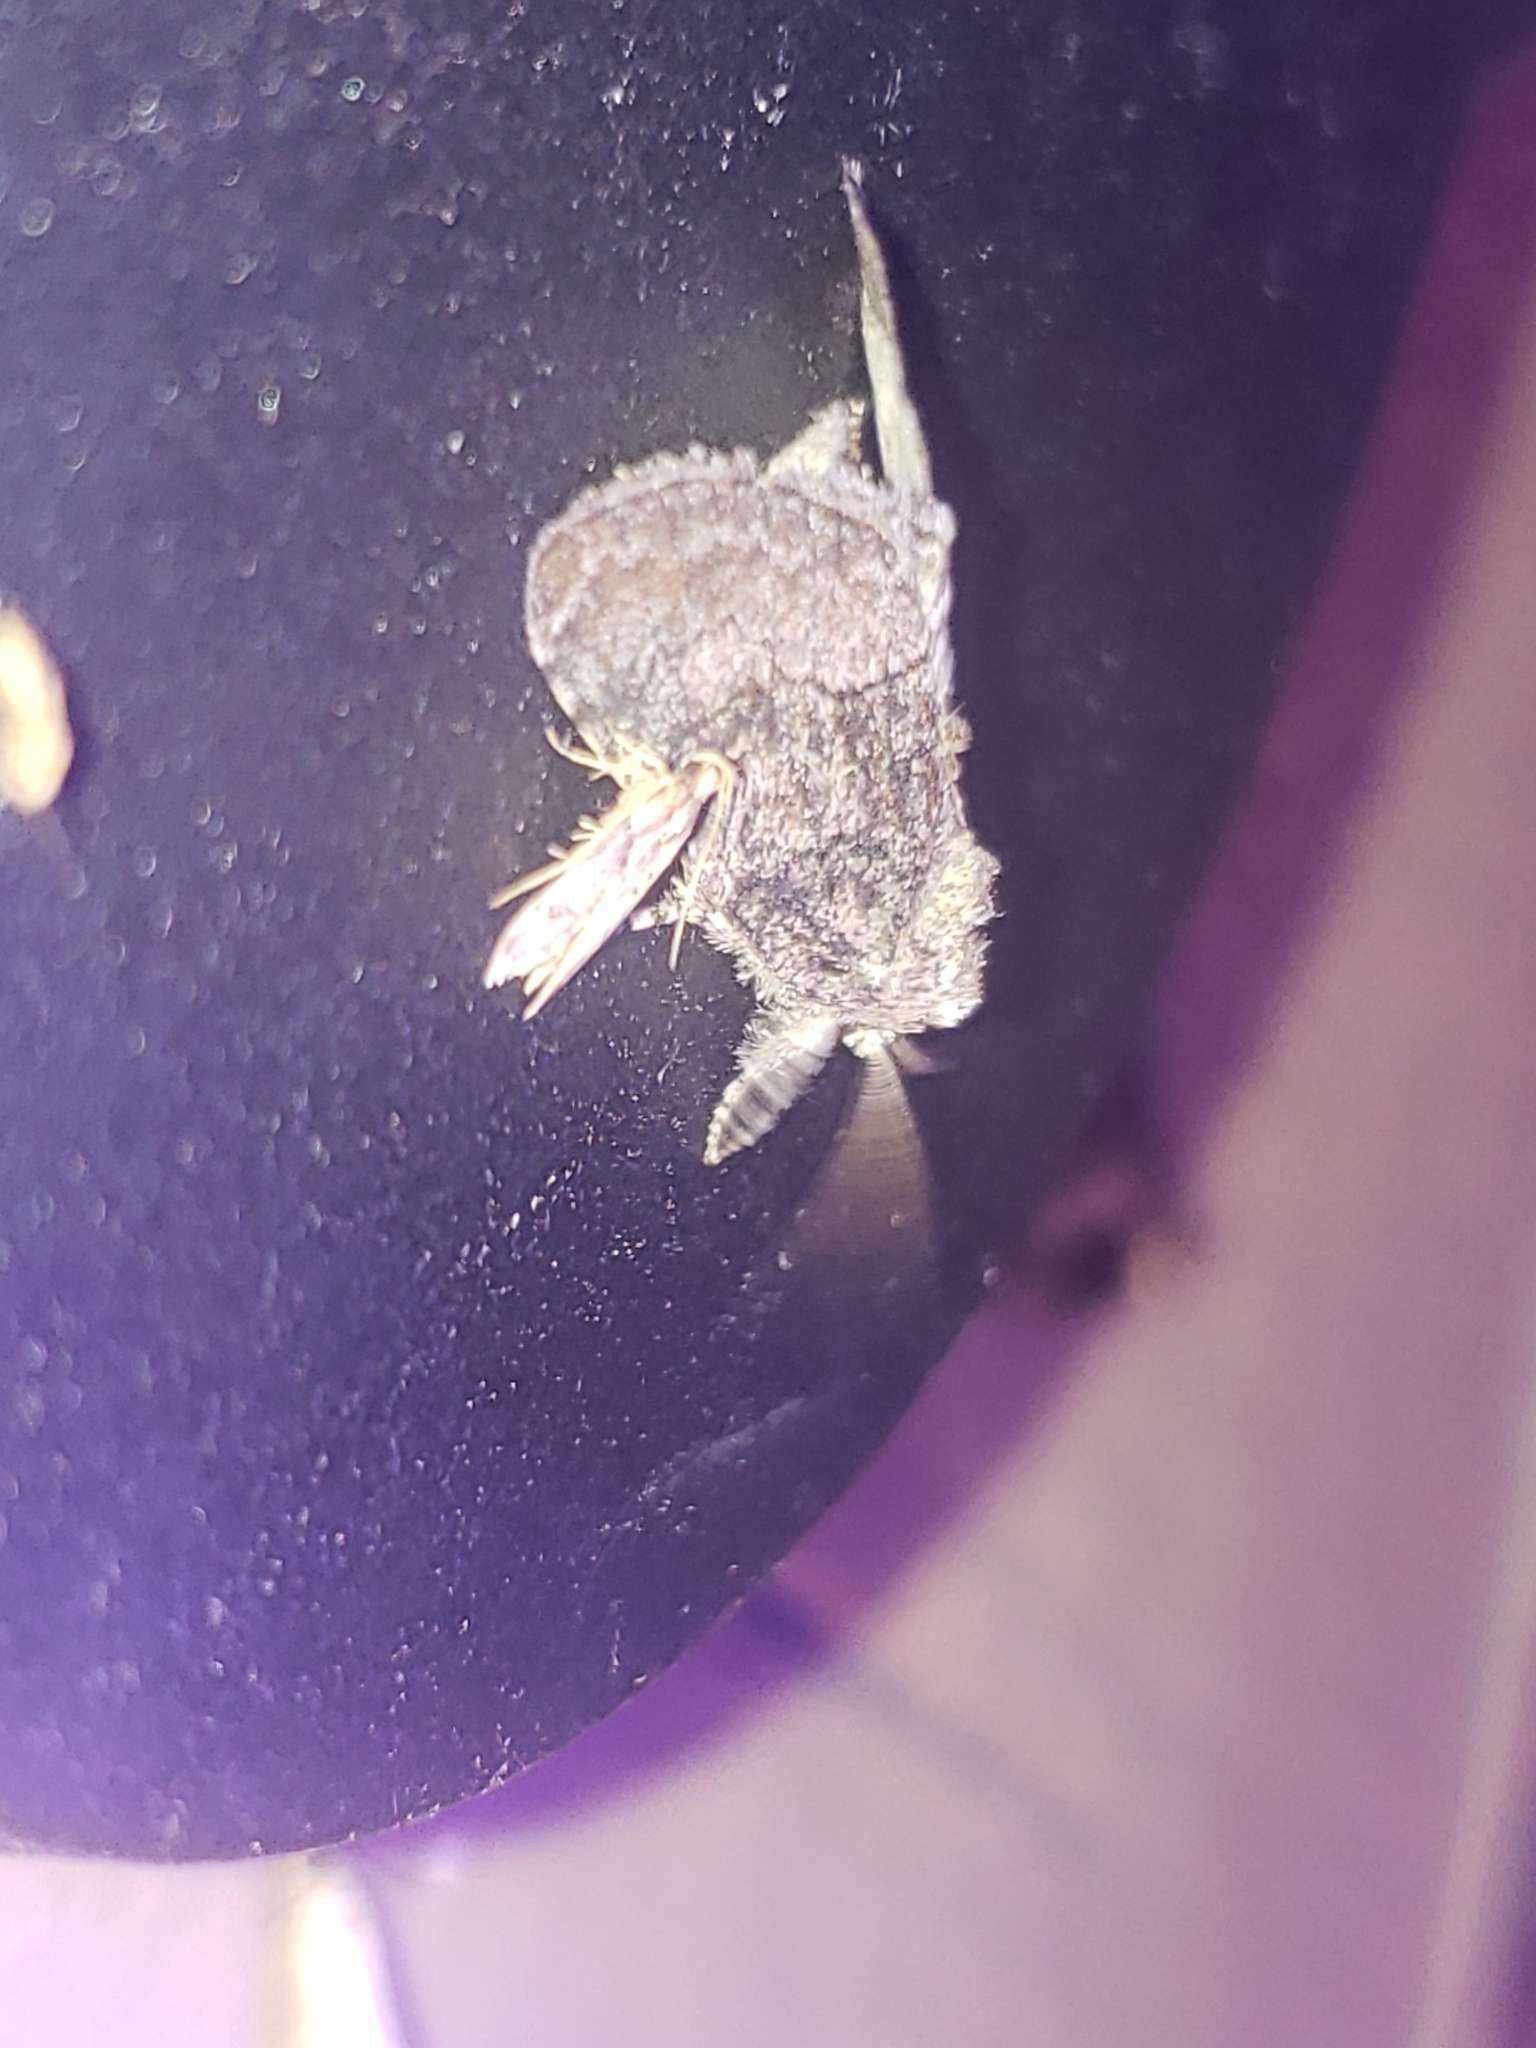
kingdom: Animalia
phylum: Arthropoda
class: Insecta
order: Lepidoptera
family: Noctuidae
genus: Raphia
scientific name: Raphia frater
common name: Brother
